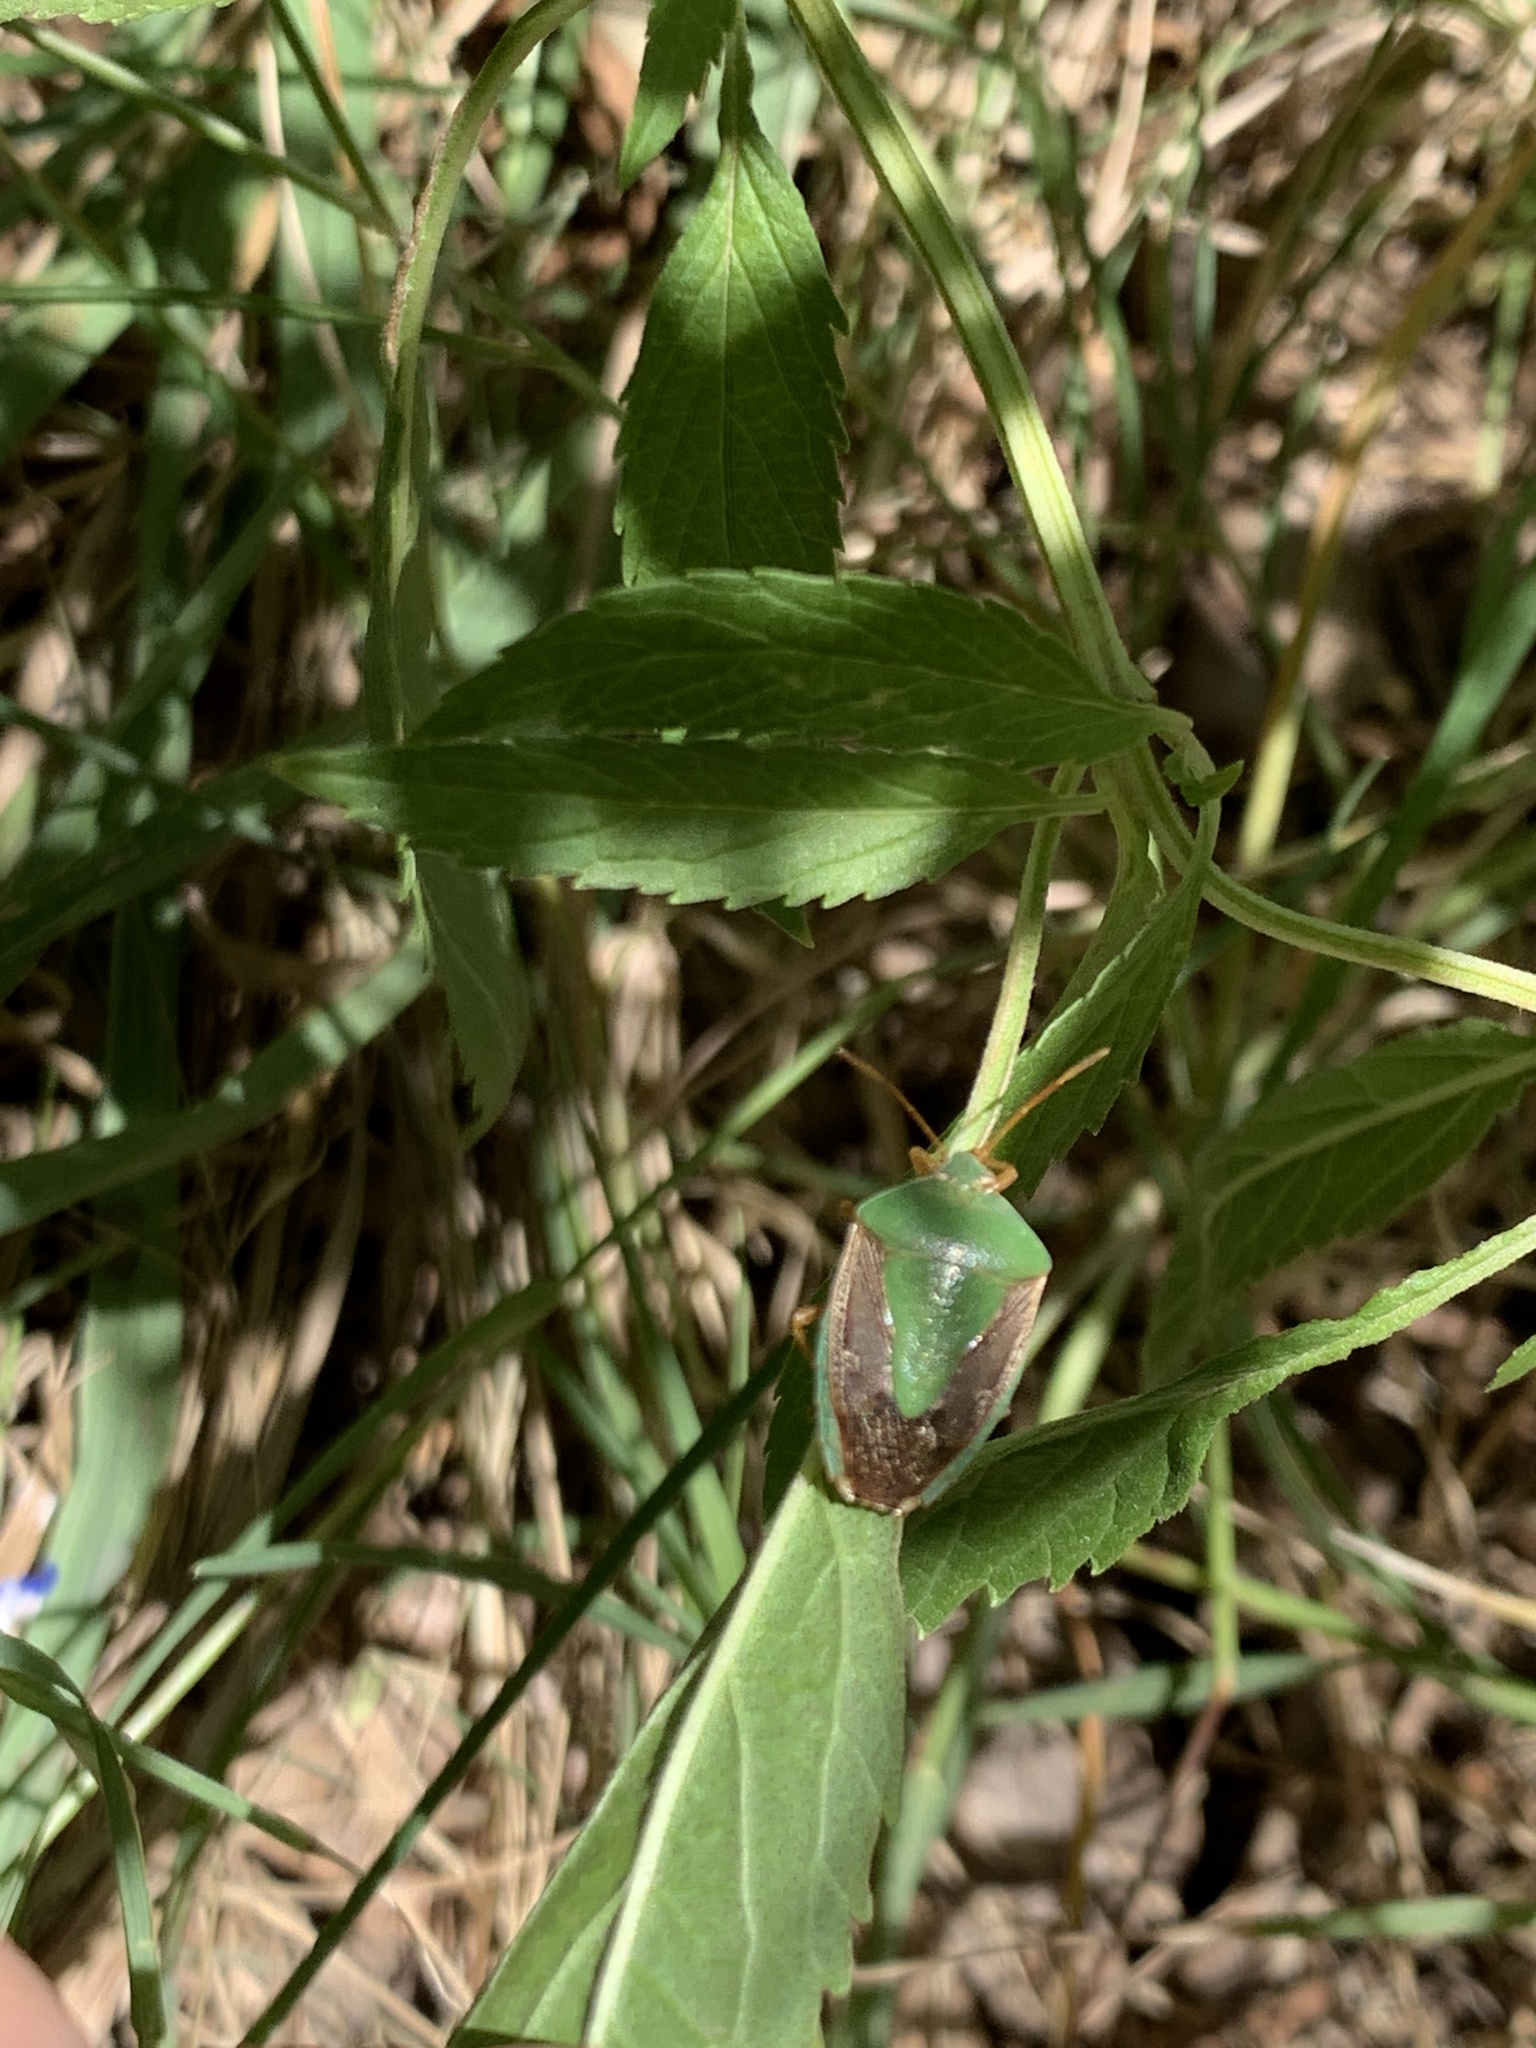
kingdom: Animalia
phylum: Arthropoda
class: Insecta
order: Hemiptera
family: Pentatomidae
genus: Edessa
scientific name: Edessa meditabunda
